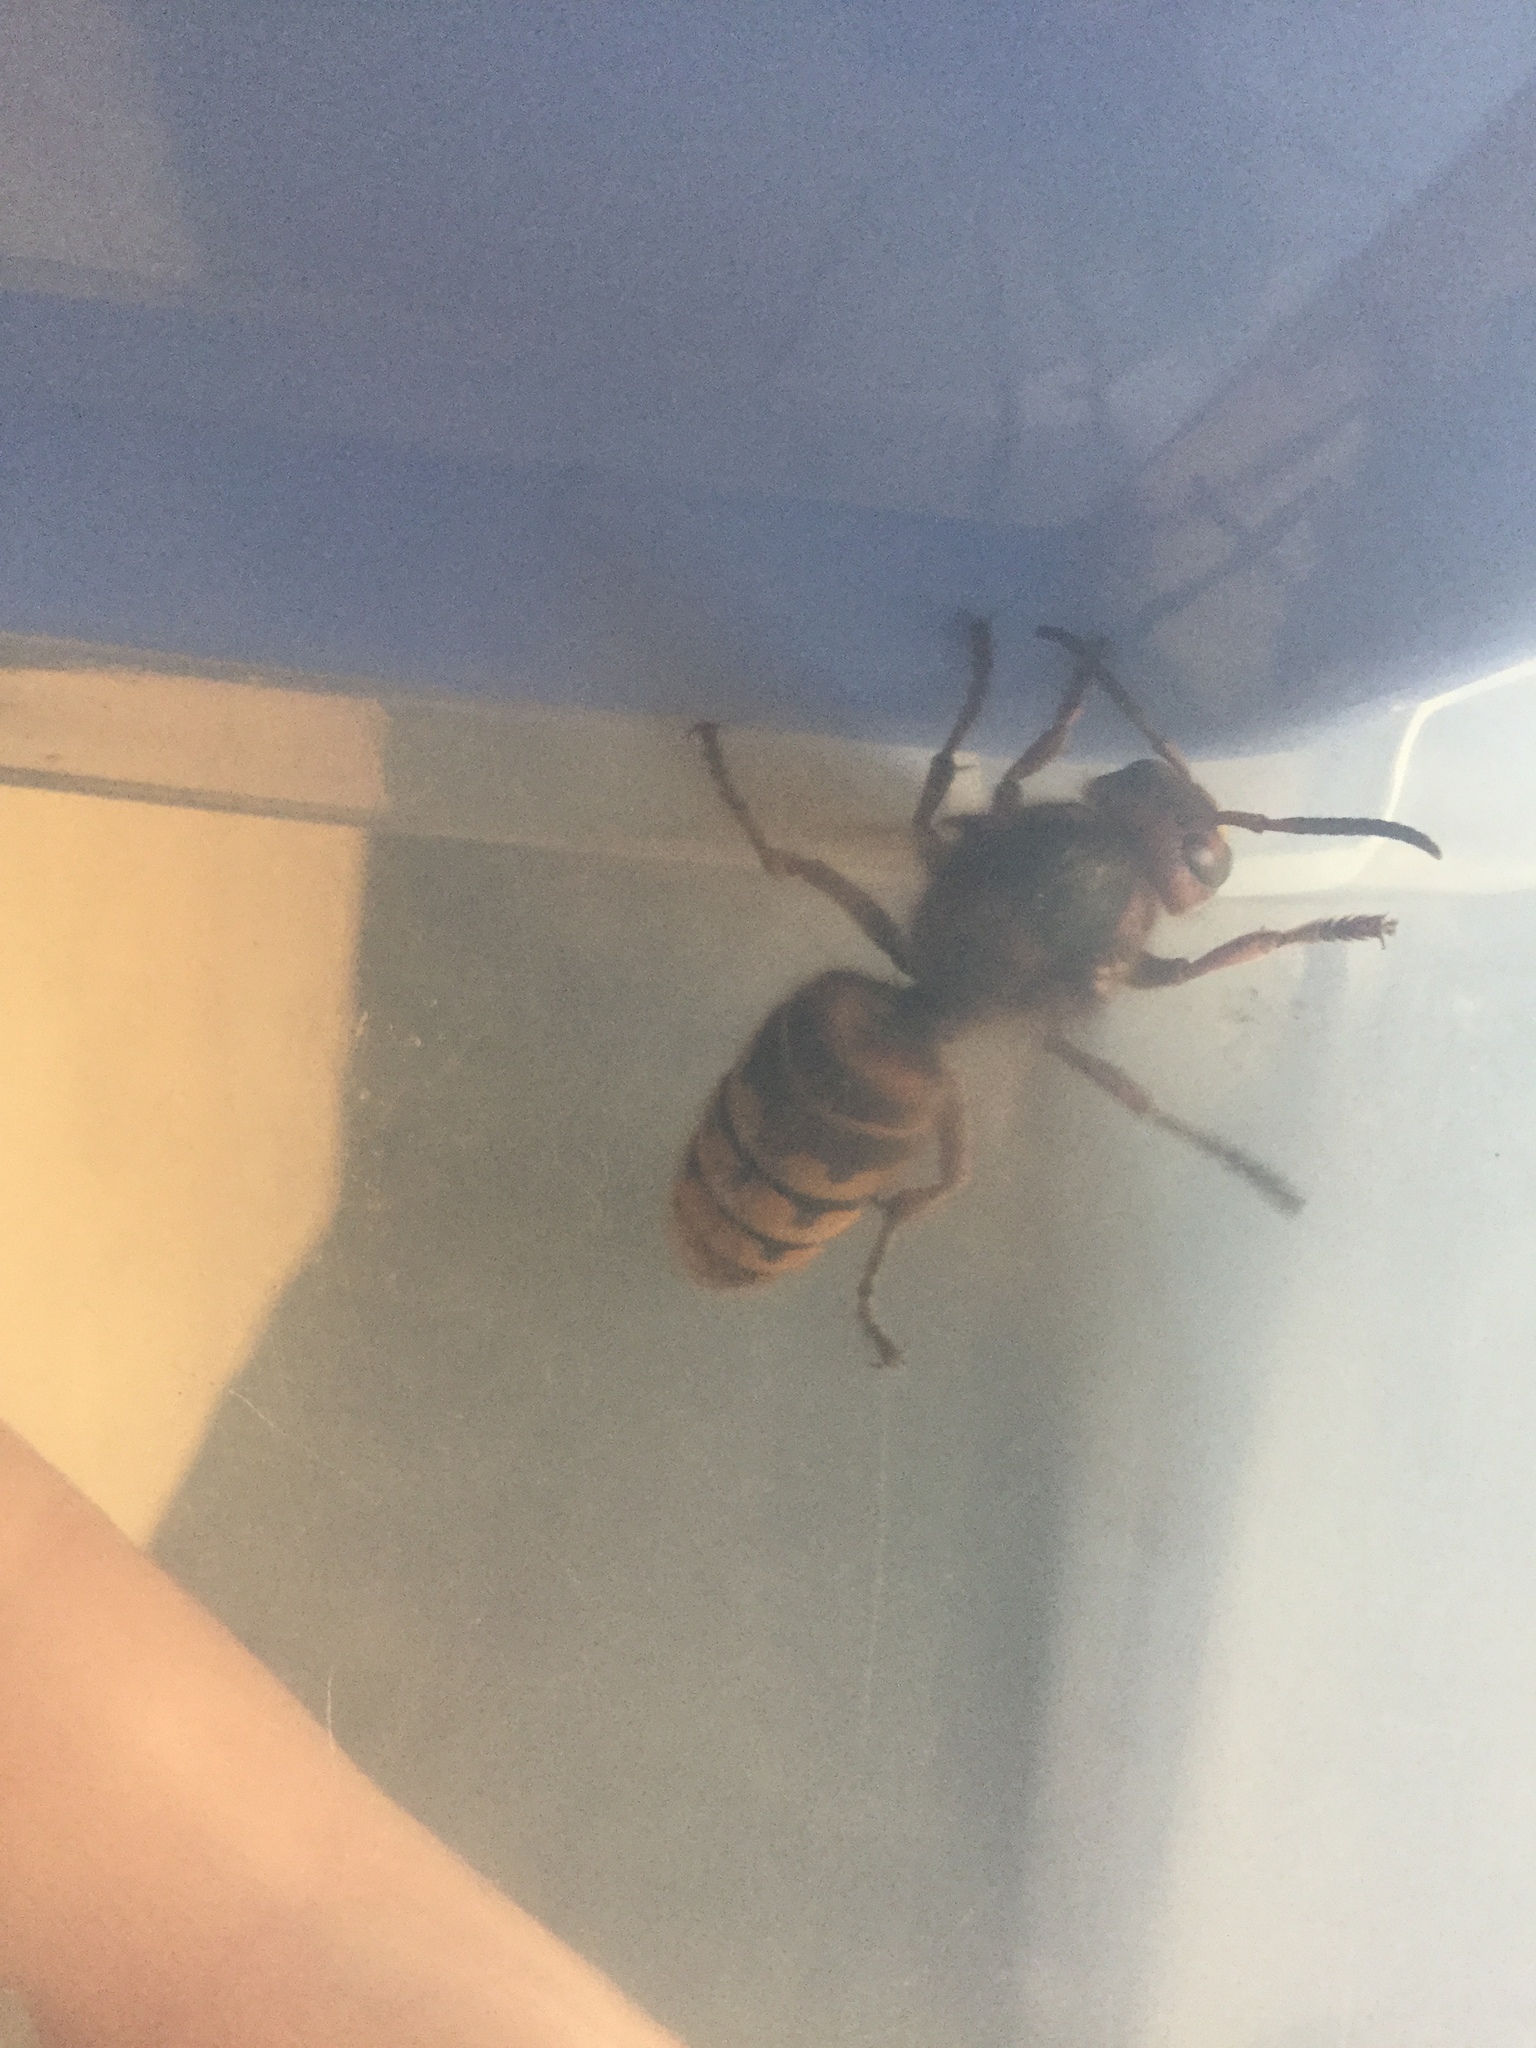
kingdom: Animalia
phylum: Arthropoda
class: Insecta
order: Hymenoptera
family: Vespidae
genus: Vespa
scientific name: Vespa crabro
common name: Hornet
